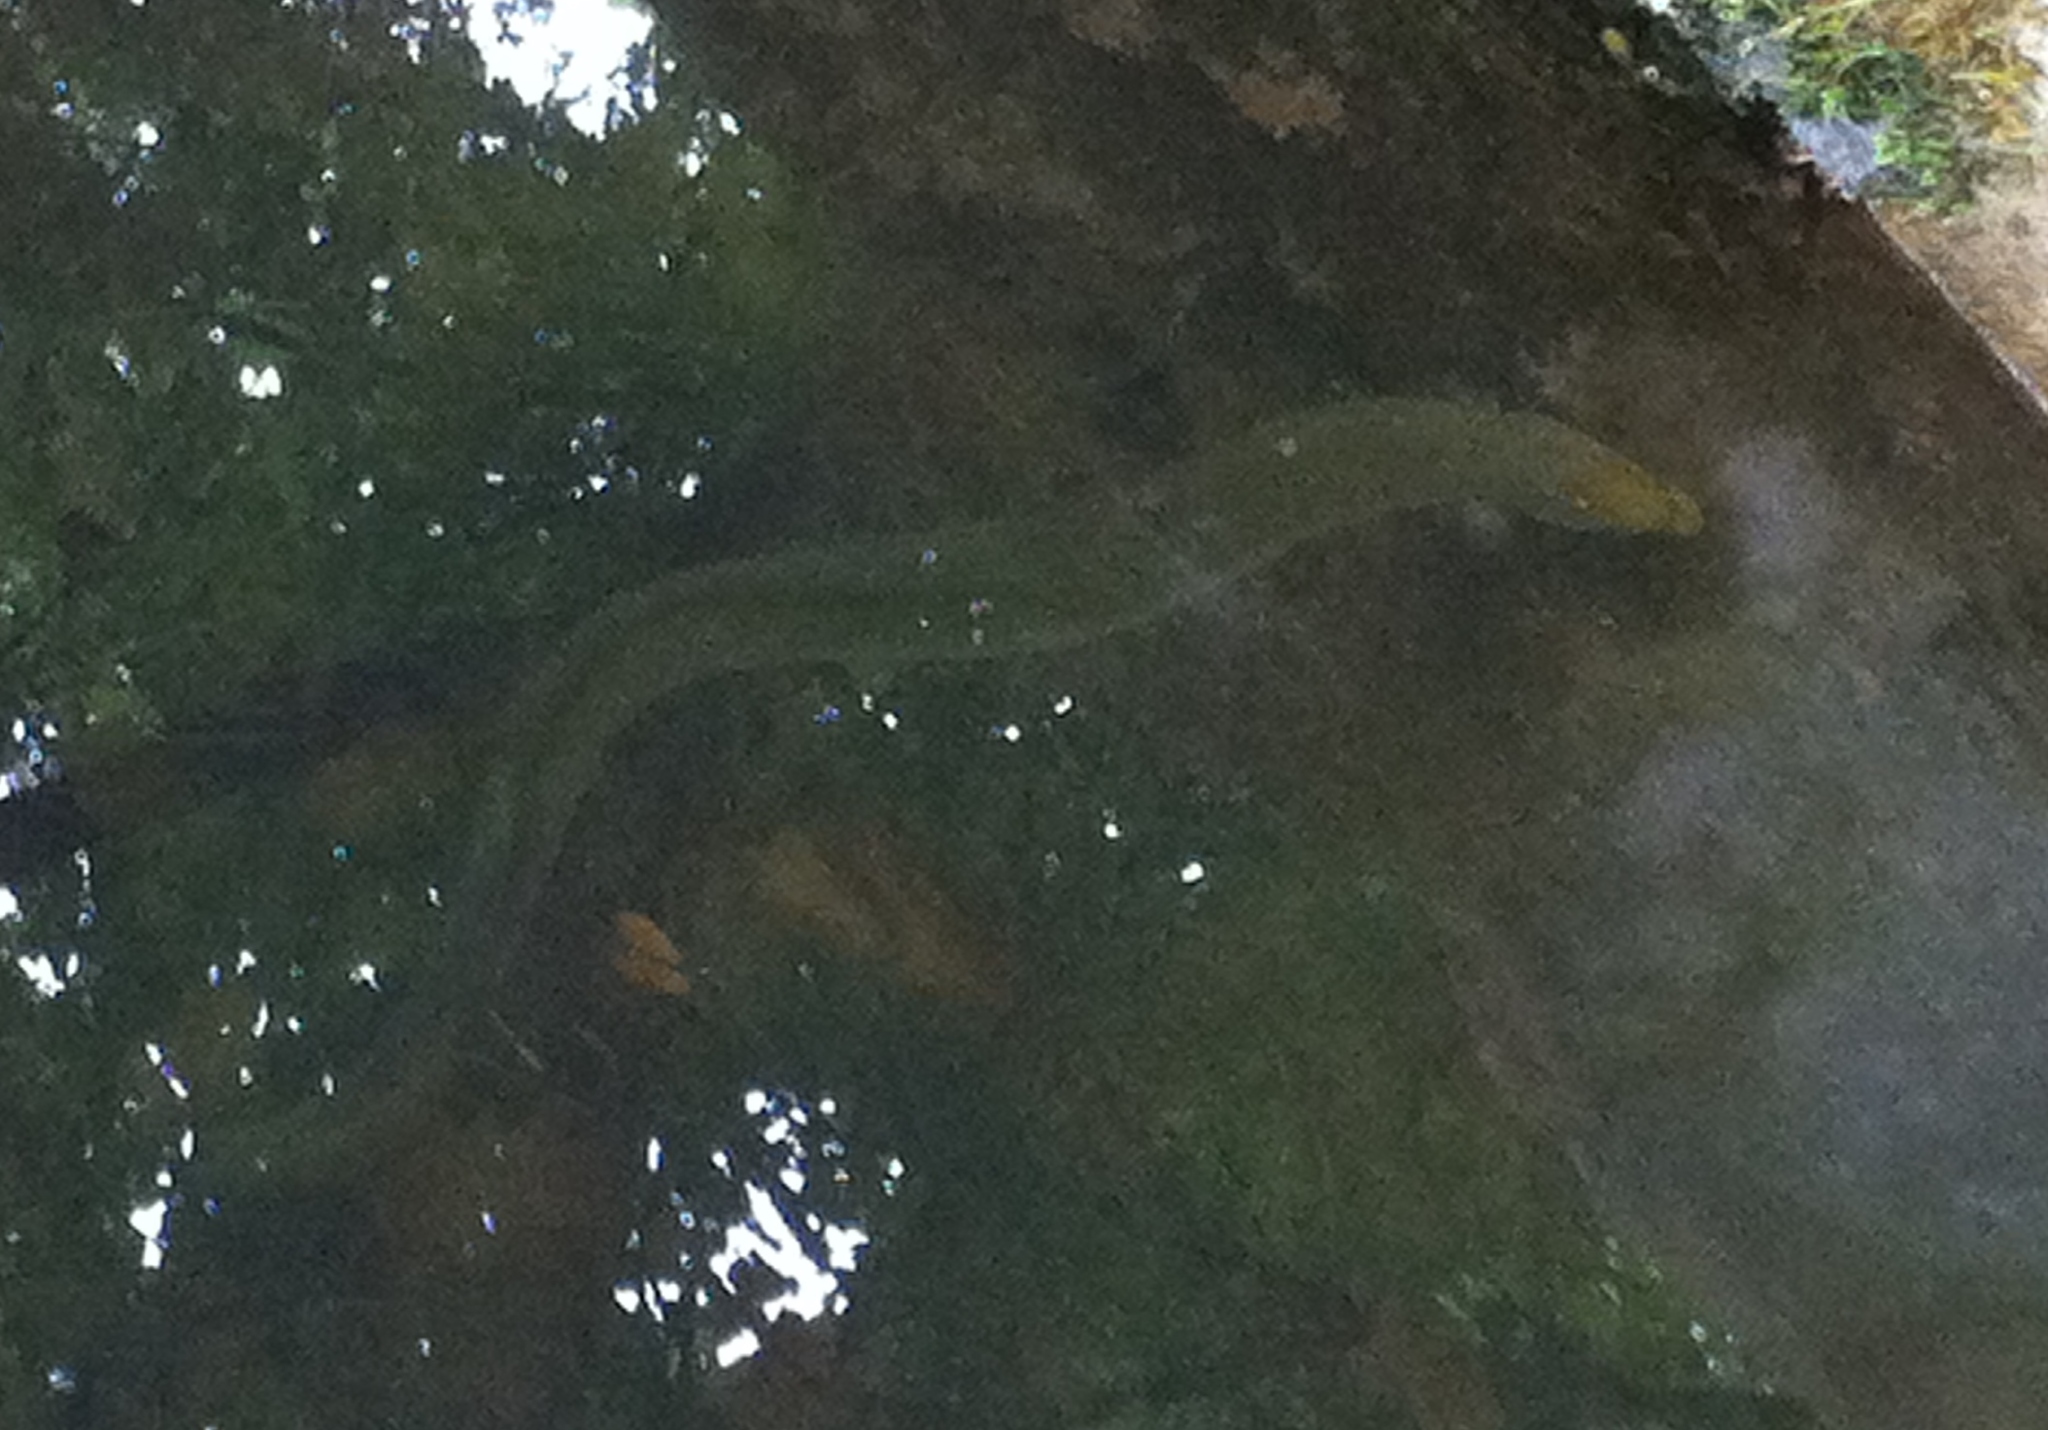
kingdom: Animalia
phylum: Chordata
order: Anguilliformes
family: Anguillidae
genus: Anguilla
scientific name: Anguilla australis
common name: Shortfin eel
